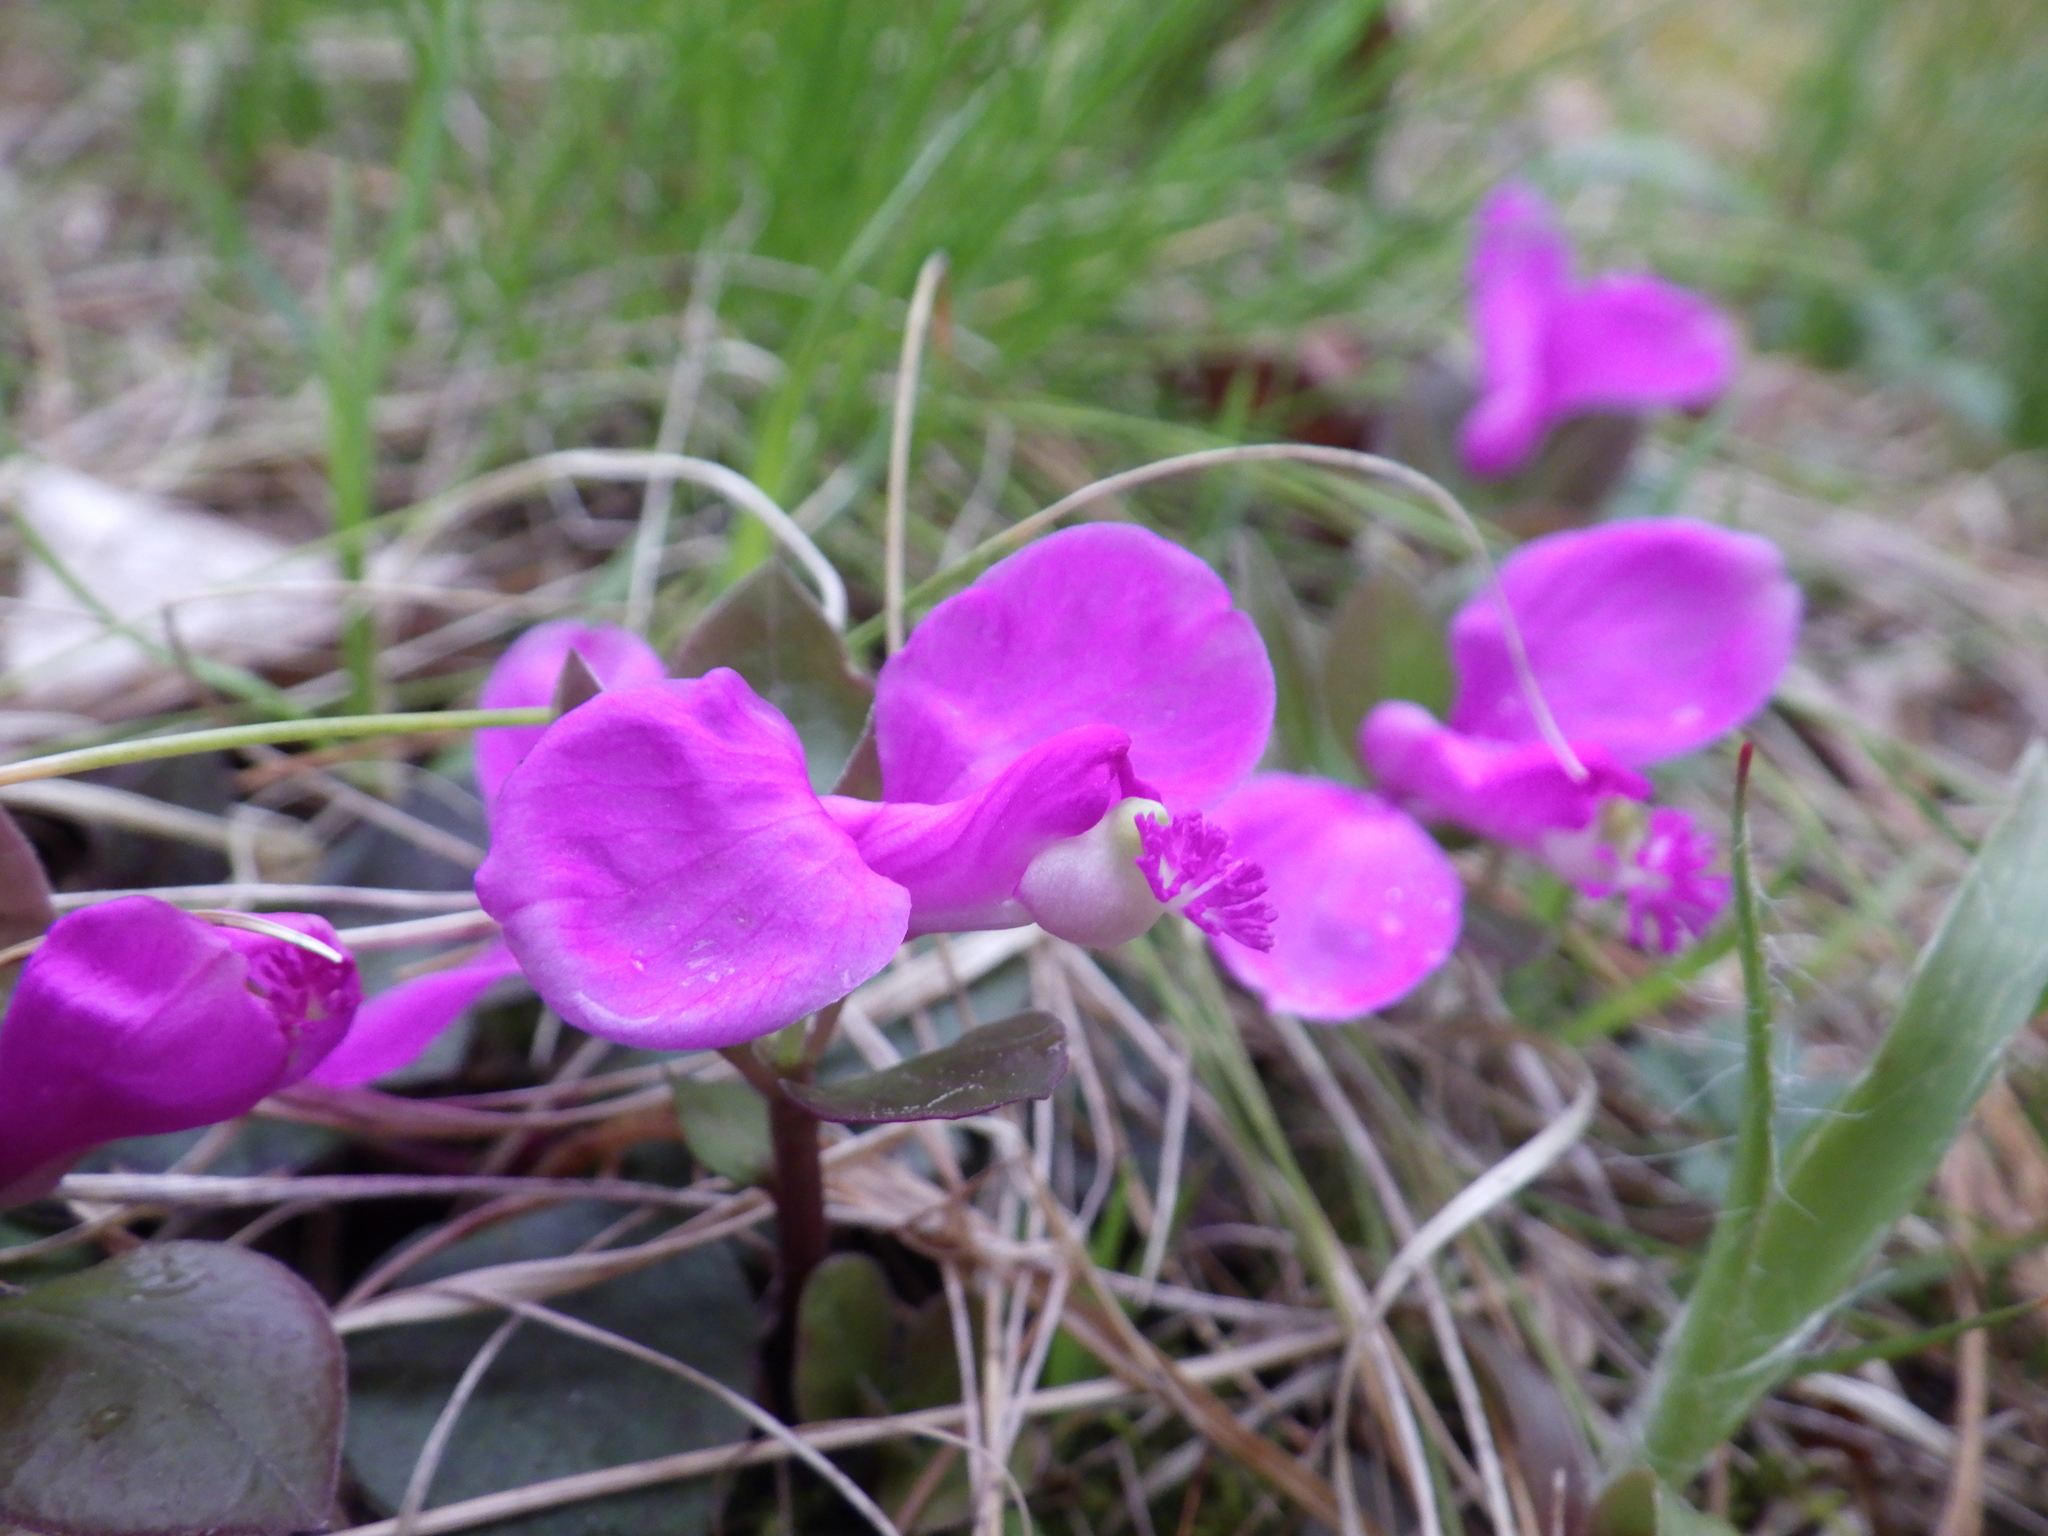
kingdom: Plantae
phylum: Tracheophyta
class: Magnoliopsida
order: Fabales
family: Polygalaceae
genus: Polygaloides
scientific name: Polygaloides paucifolia
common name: Bird-on-the-wing
